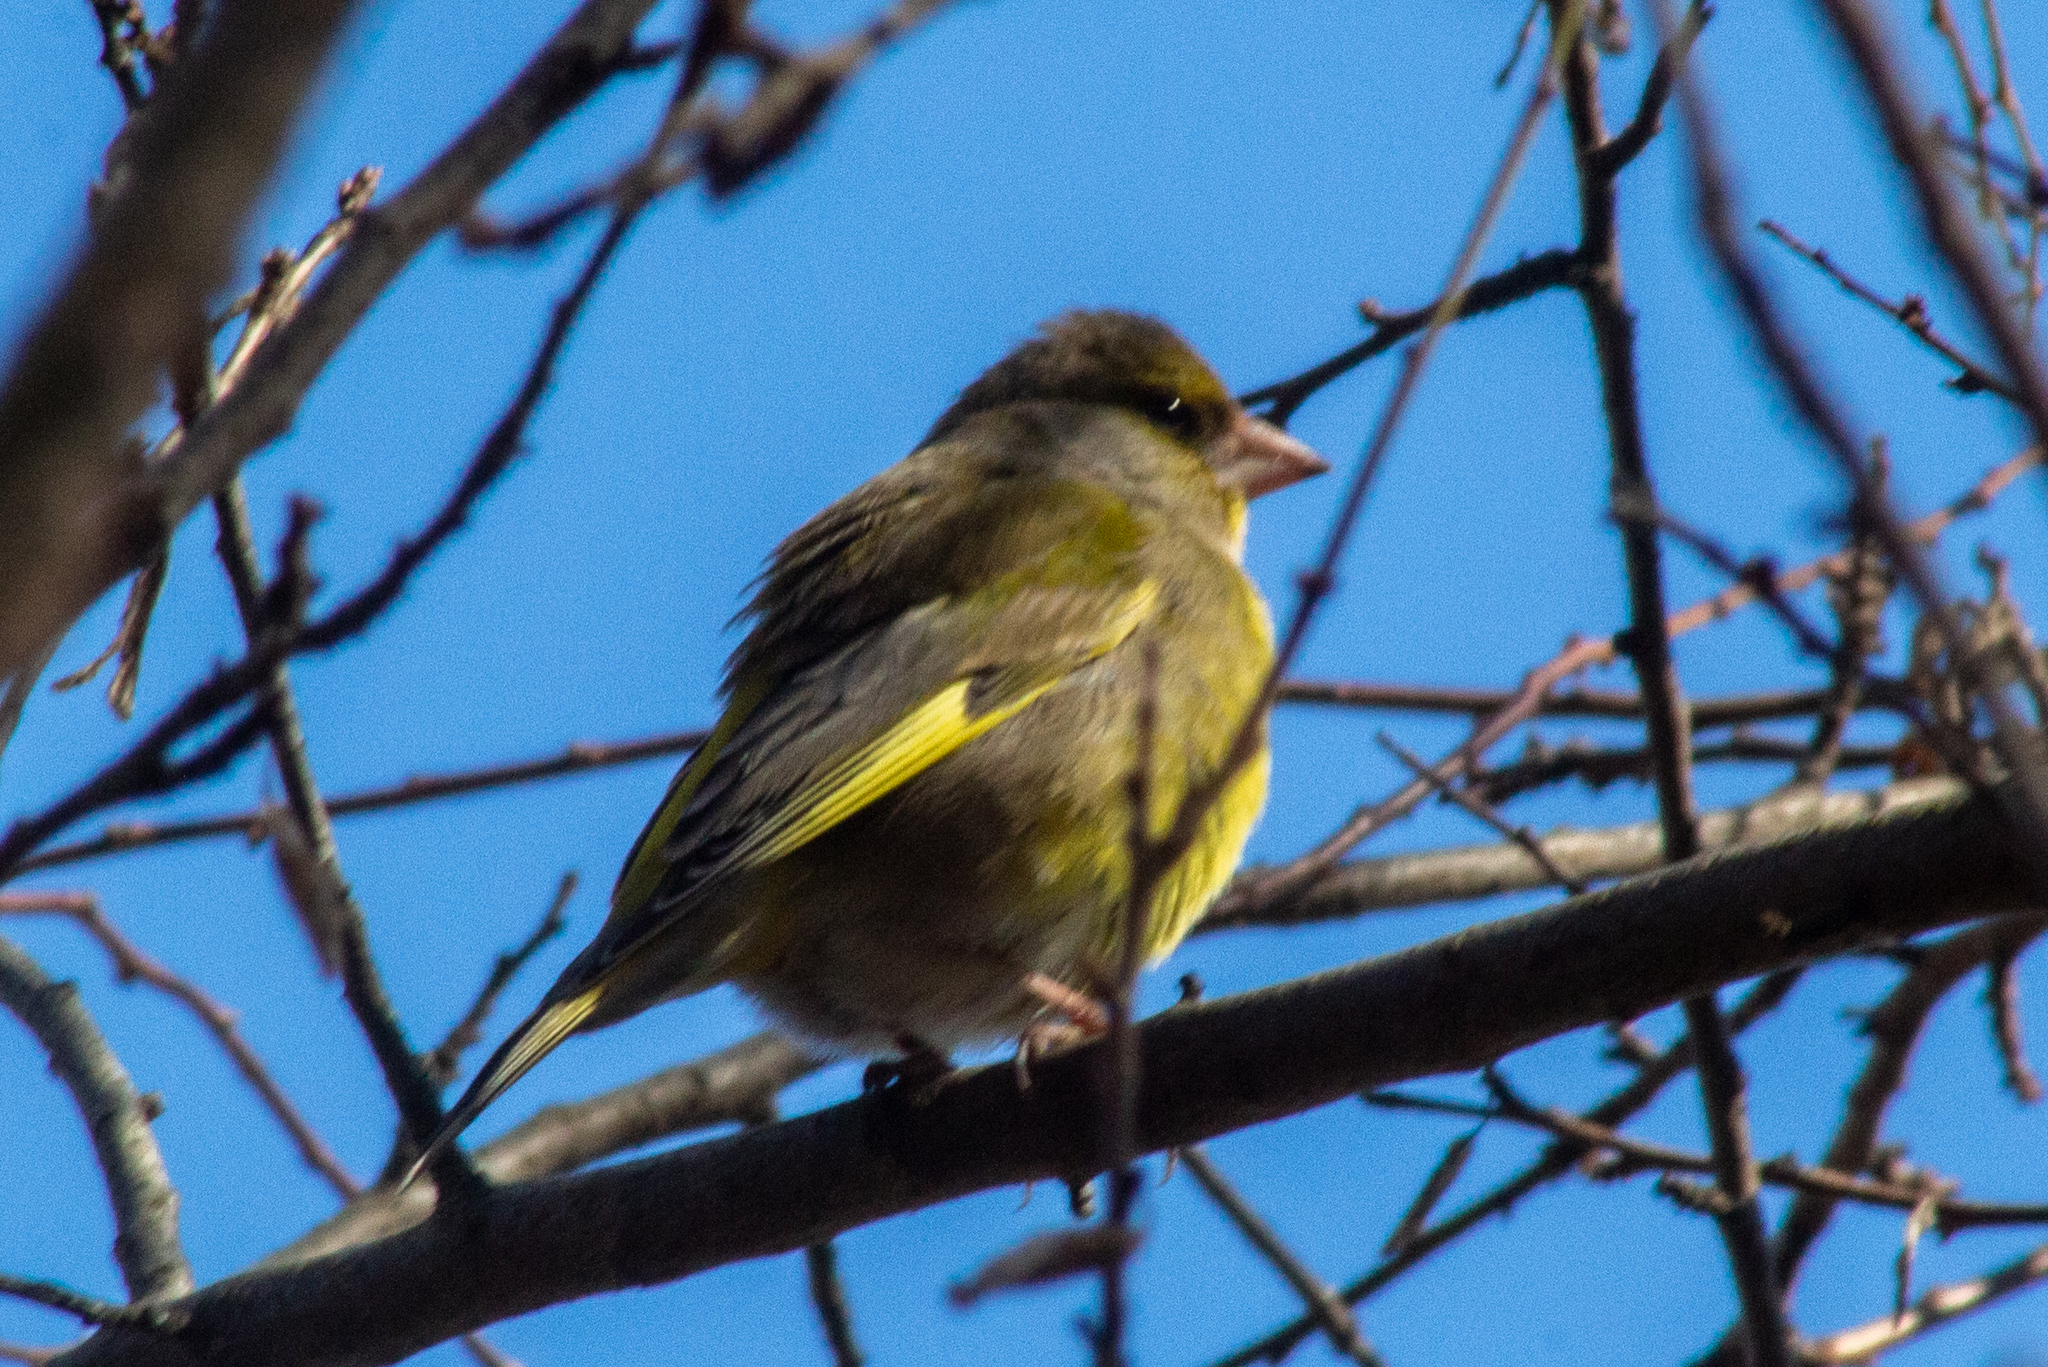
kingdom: Plantae
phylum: Tracheophyta
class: Liliopsida
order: Poales
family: Poaceae
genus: Chloris
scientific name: Chloris chloris
